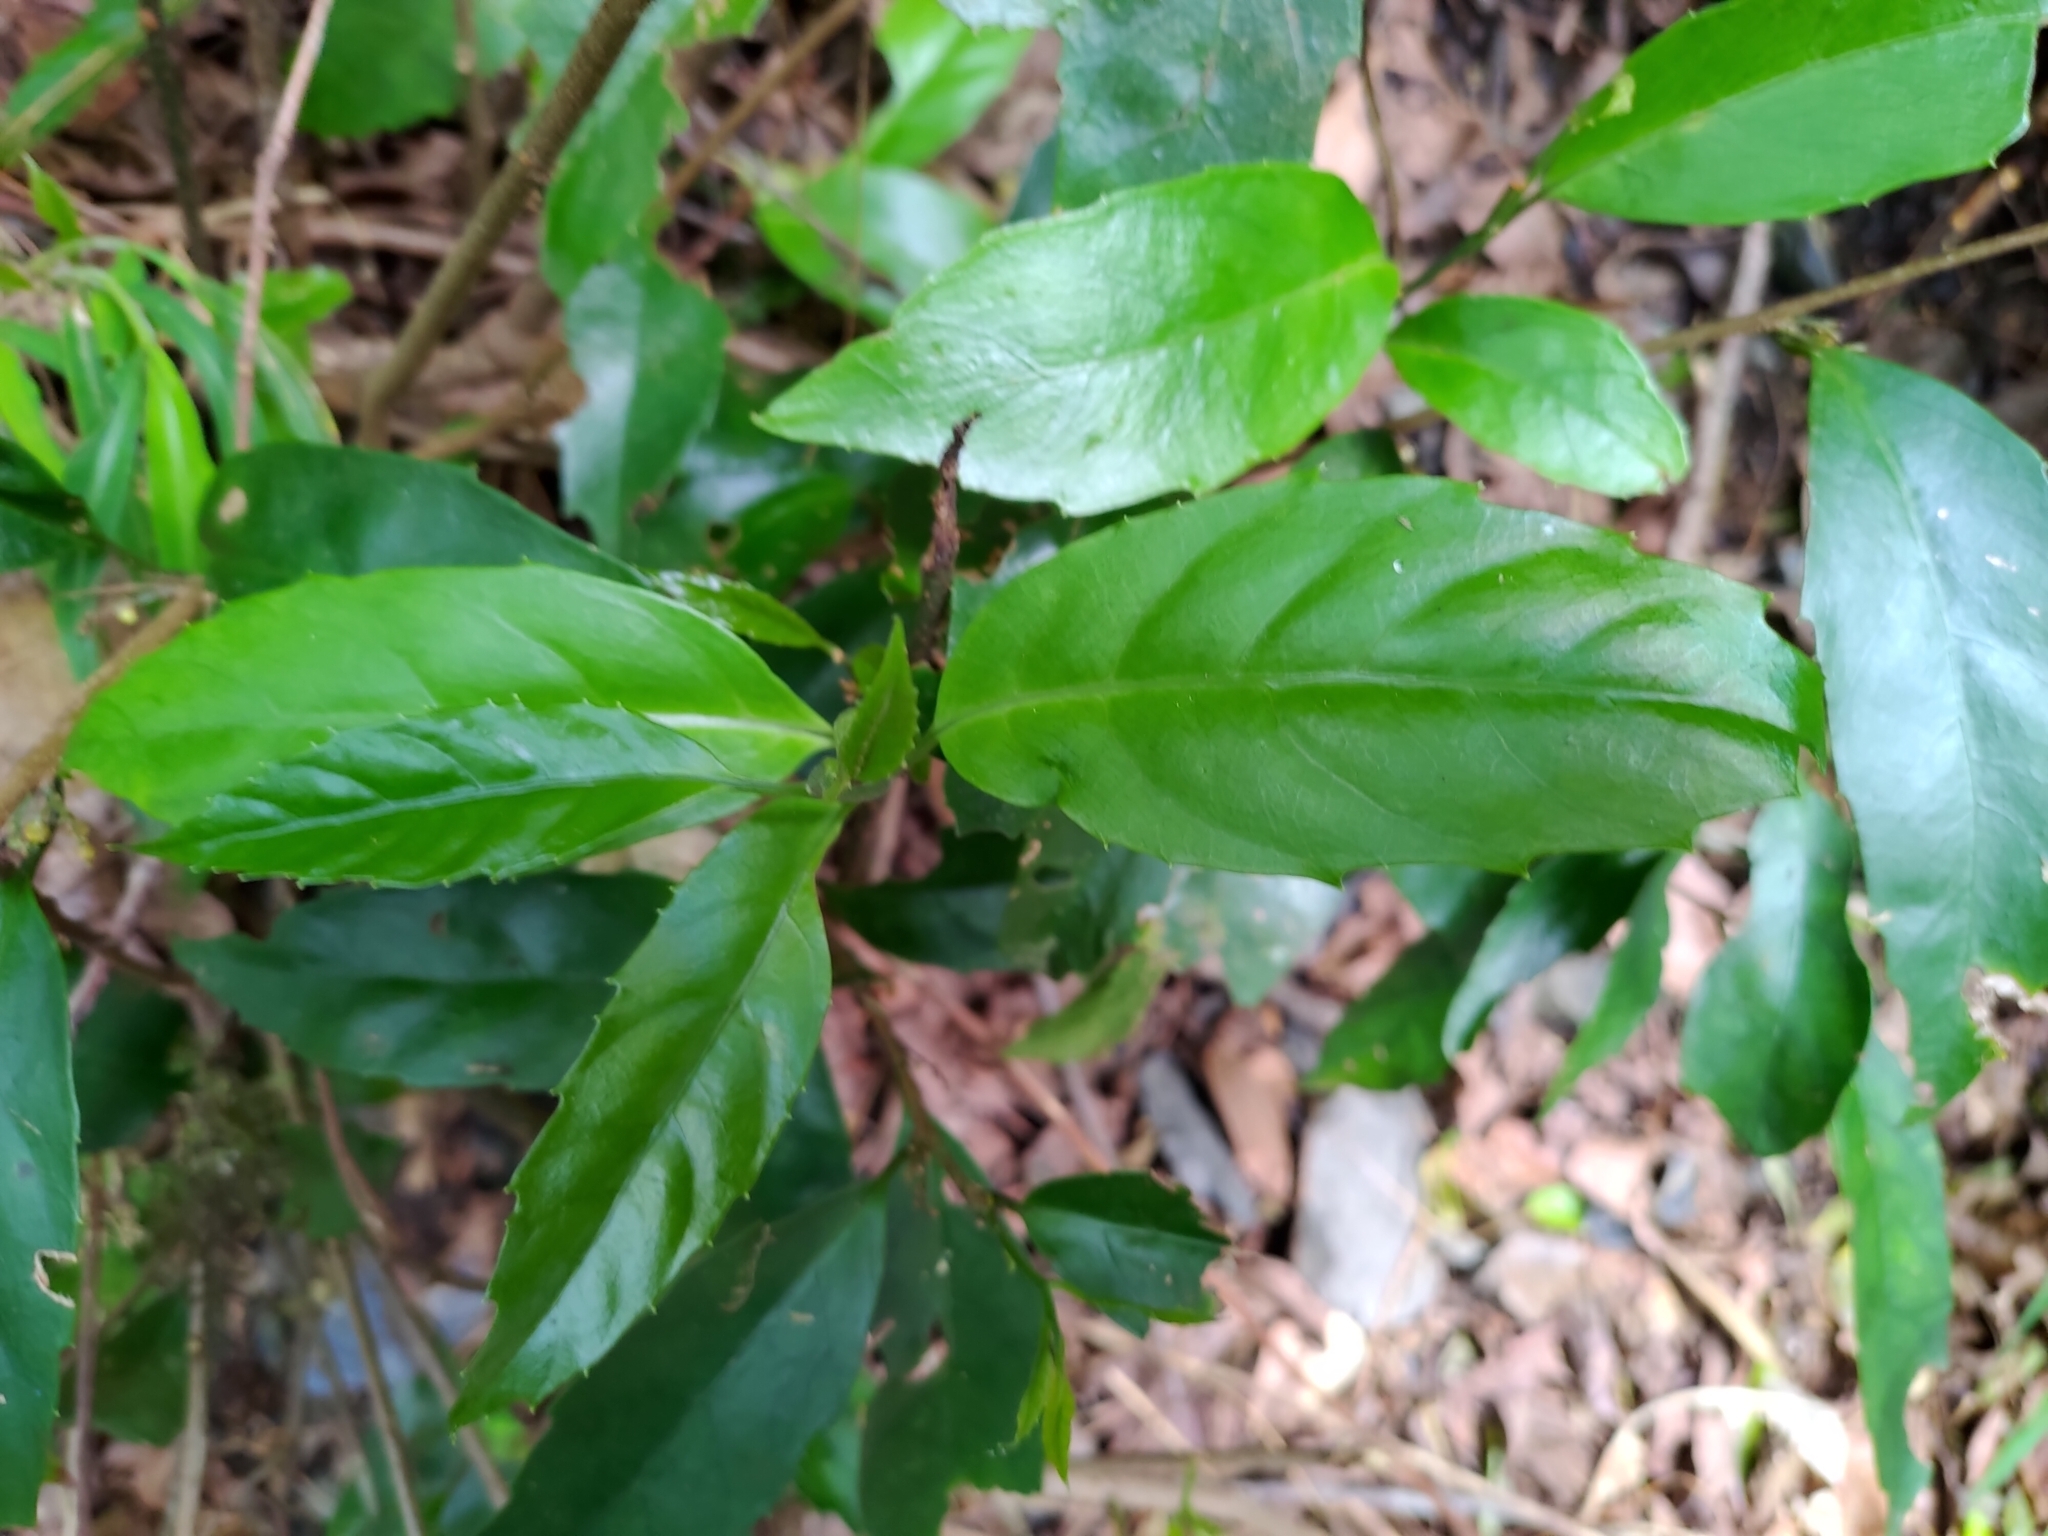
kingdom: Plantae
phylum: Tracheophyta
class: Magnoliopsida
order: Ericales
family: Primulaceae
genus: Maesa
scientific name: Maesa japonica
